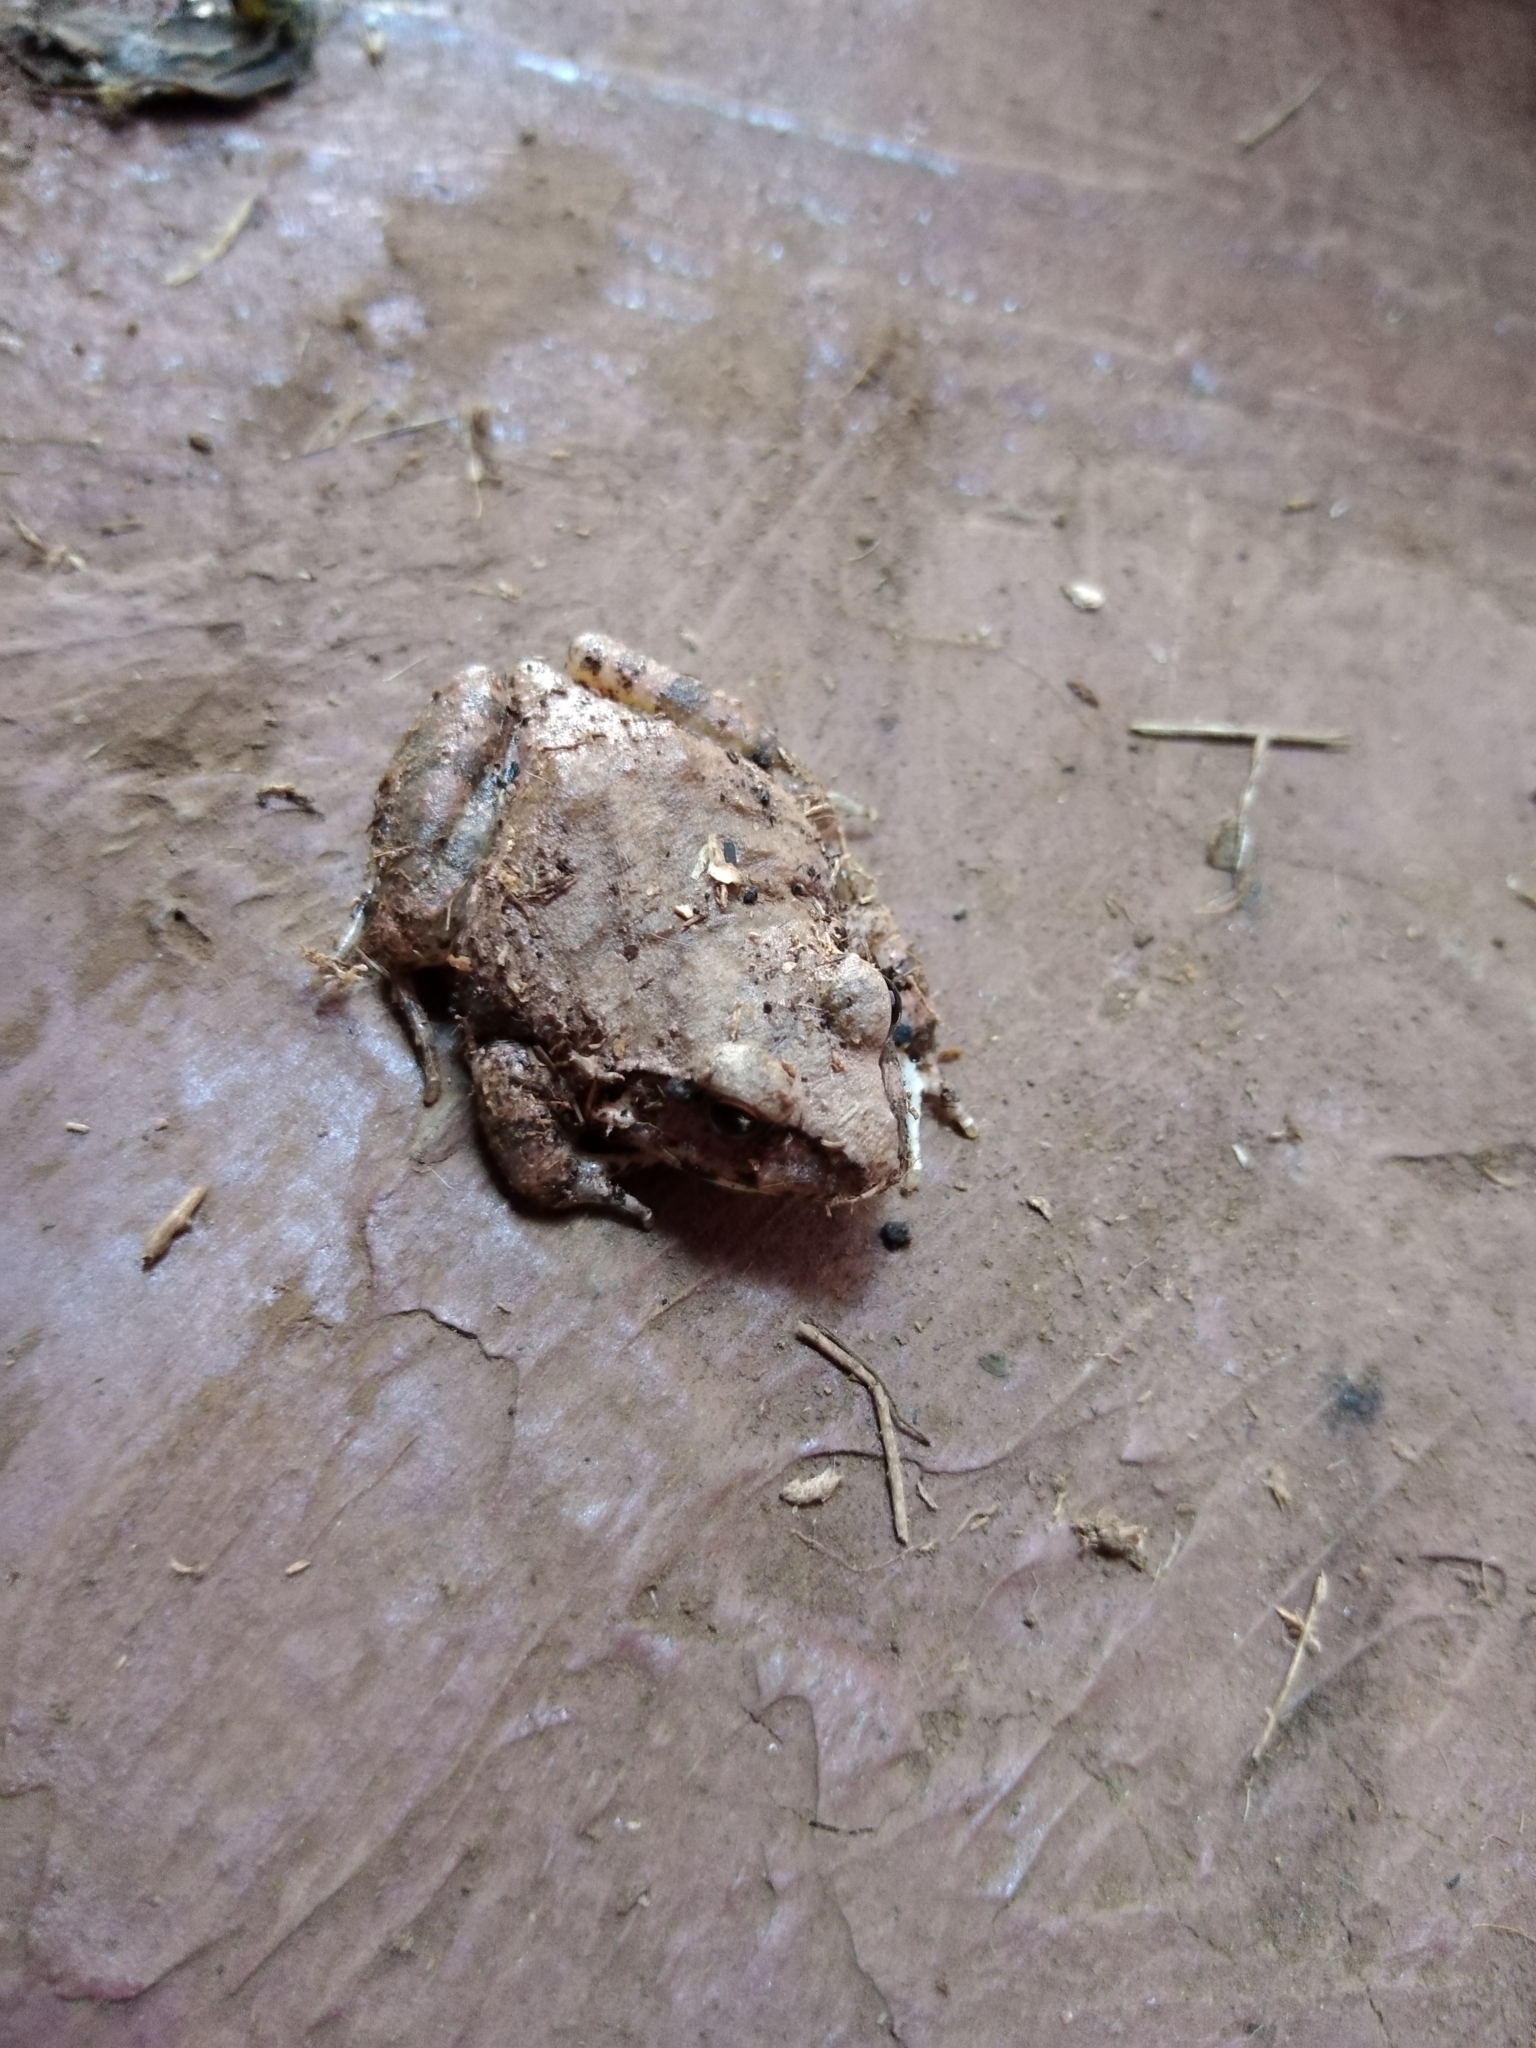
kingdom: Animalia
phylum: Chordata
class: Amphibia
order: Anura
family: Pyxicephalidae
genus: Tomopterna
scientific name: Tomopterna natalensis
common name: Natal sand frog
